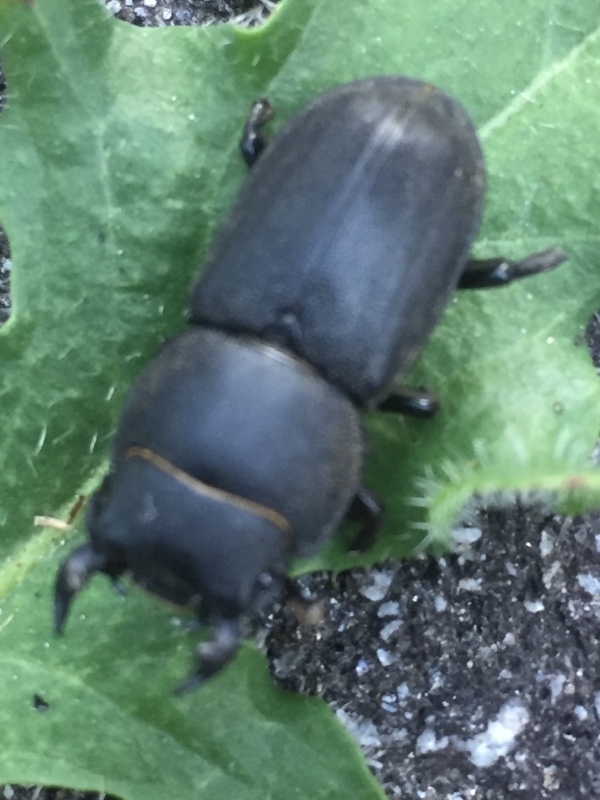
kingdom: Animalia
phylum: Arthropoda
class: Insecta
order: Coleoptera
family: Lucanidae
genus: Dorcus
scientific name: Dorcus parallelipipedus
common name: Lesser stag beetle
